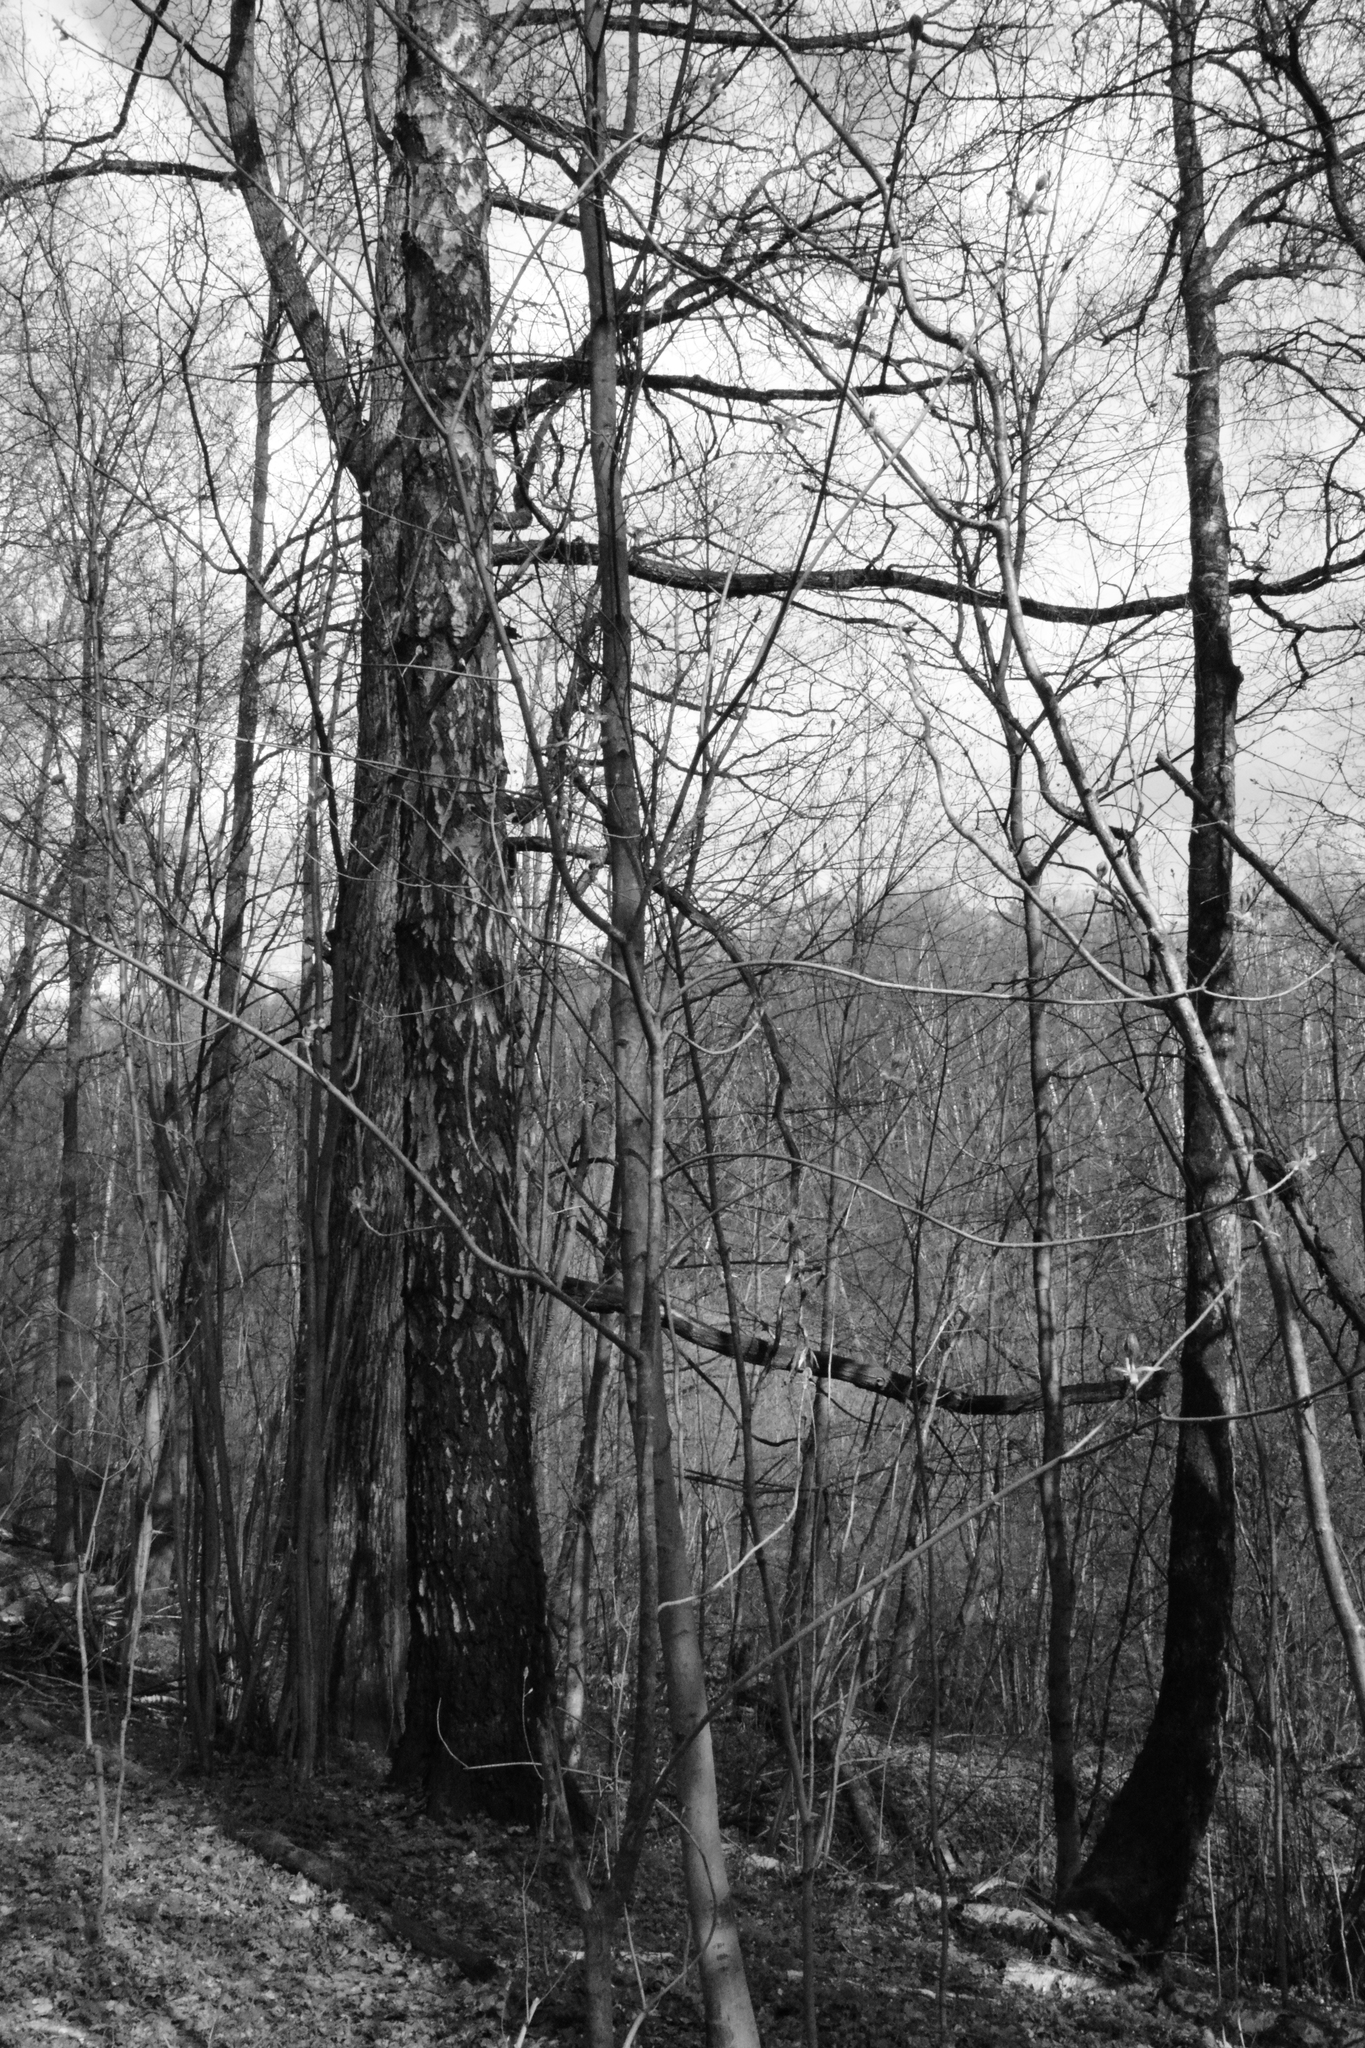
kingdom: Plantae
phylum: Tracheophyta
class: Magnoliopsida
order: Sapindales
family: Sapindaceae
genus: Acer
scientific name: Acer platanoides
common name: Norway maple
